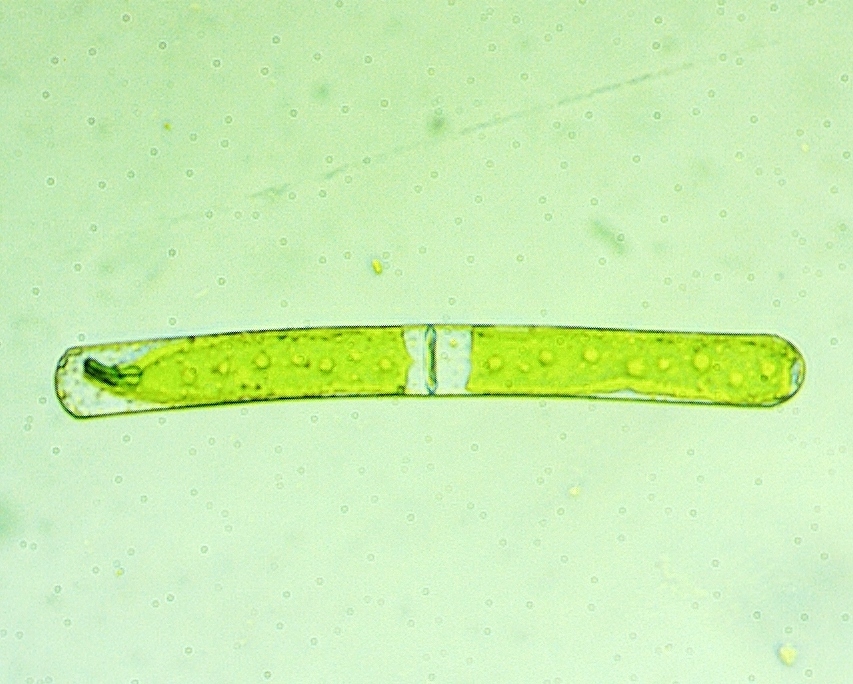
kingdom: Plantae
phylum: Charophyta
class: Zygnematophyceae
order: Zygnematales
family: Zygnemataceae
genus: Mougeotia
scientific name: Mougeotia
